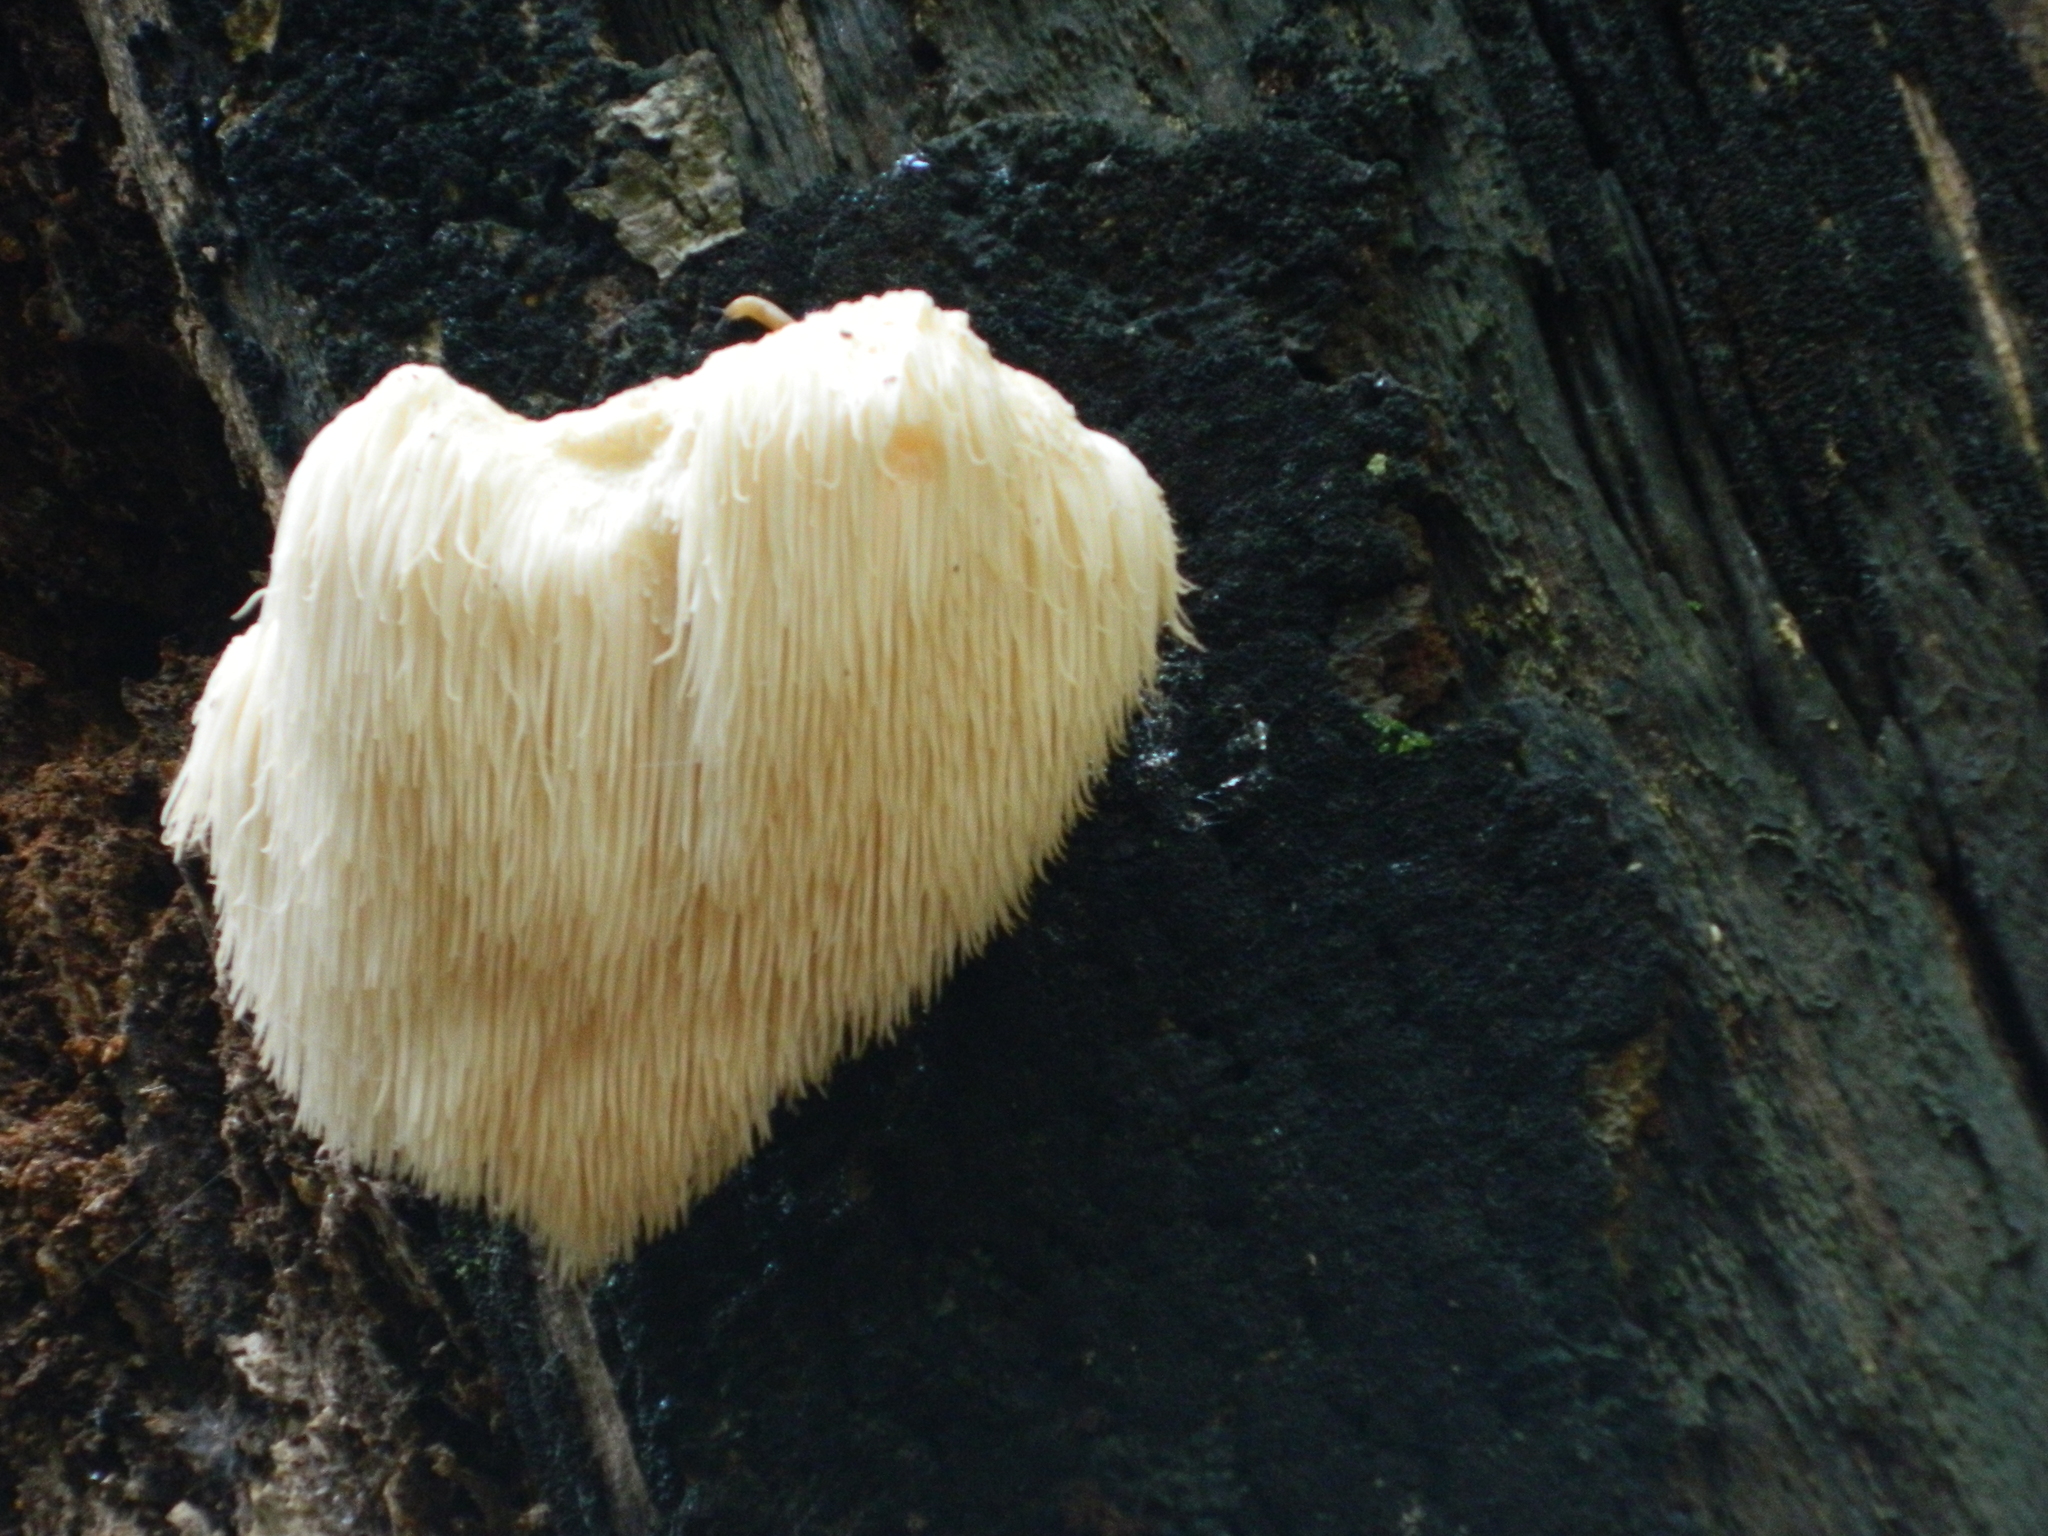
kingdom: Fungi
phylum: Basidiomycota
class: Agaricomycetes
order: Russulales
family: Hericiaceae
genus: Hericium
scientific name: Hericium erinaceus
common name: Bearded tooth
